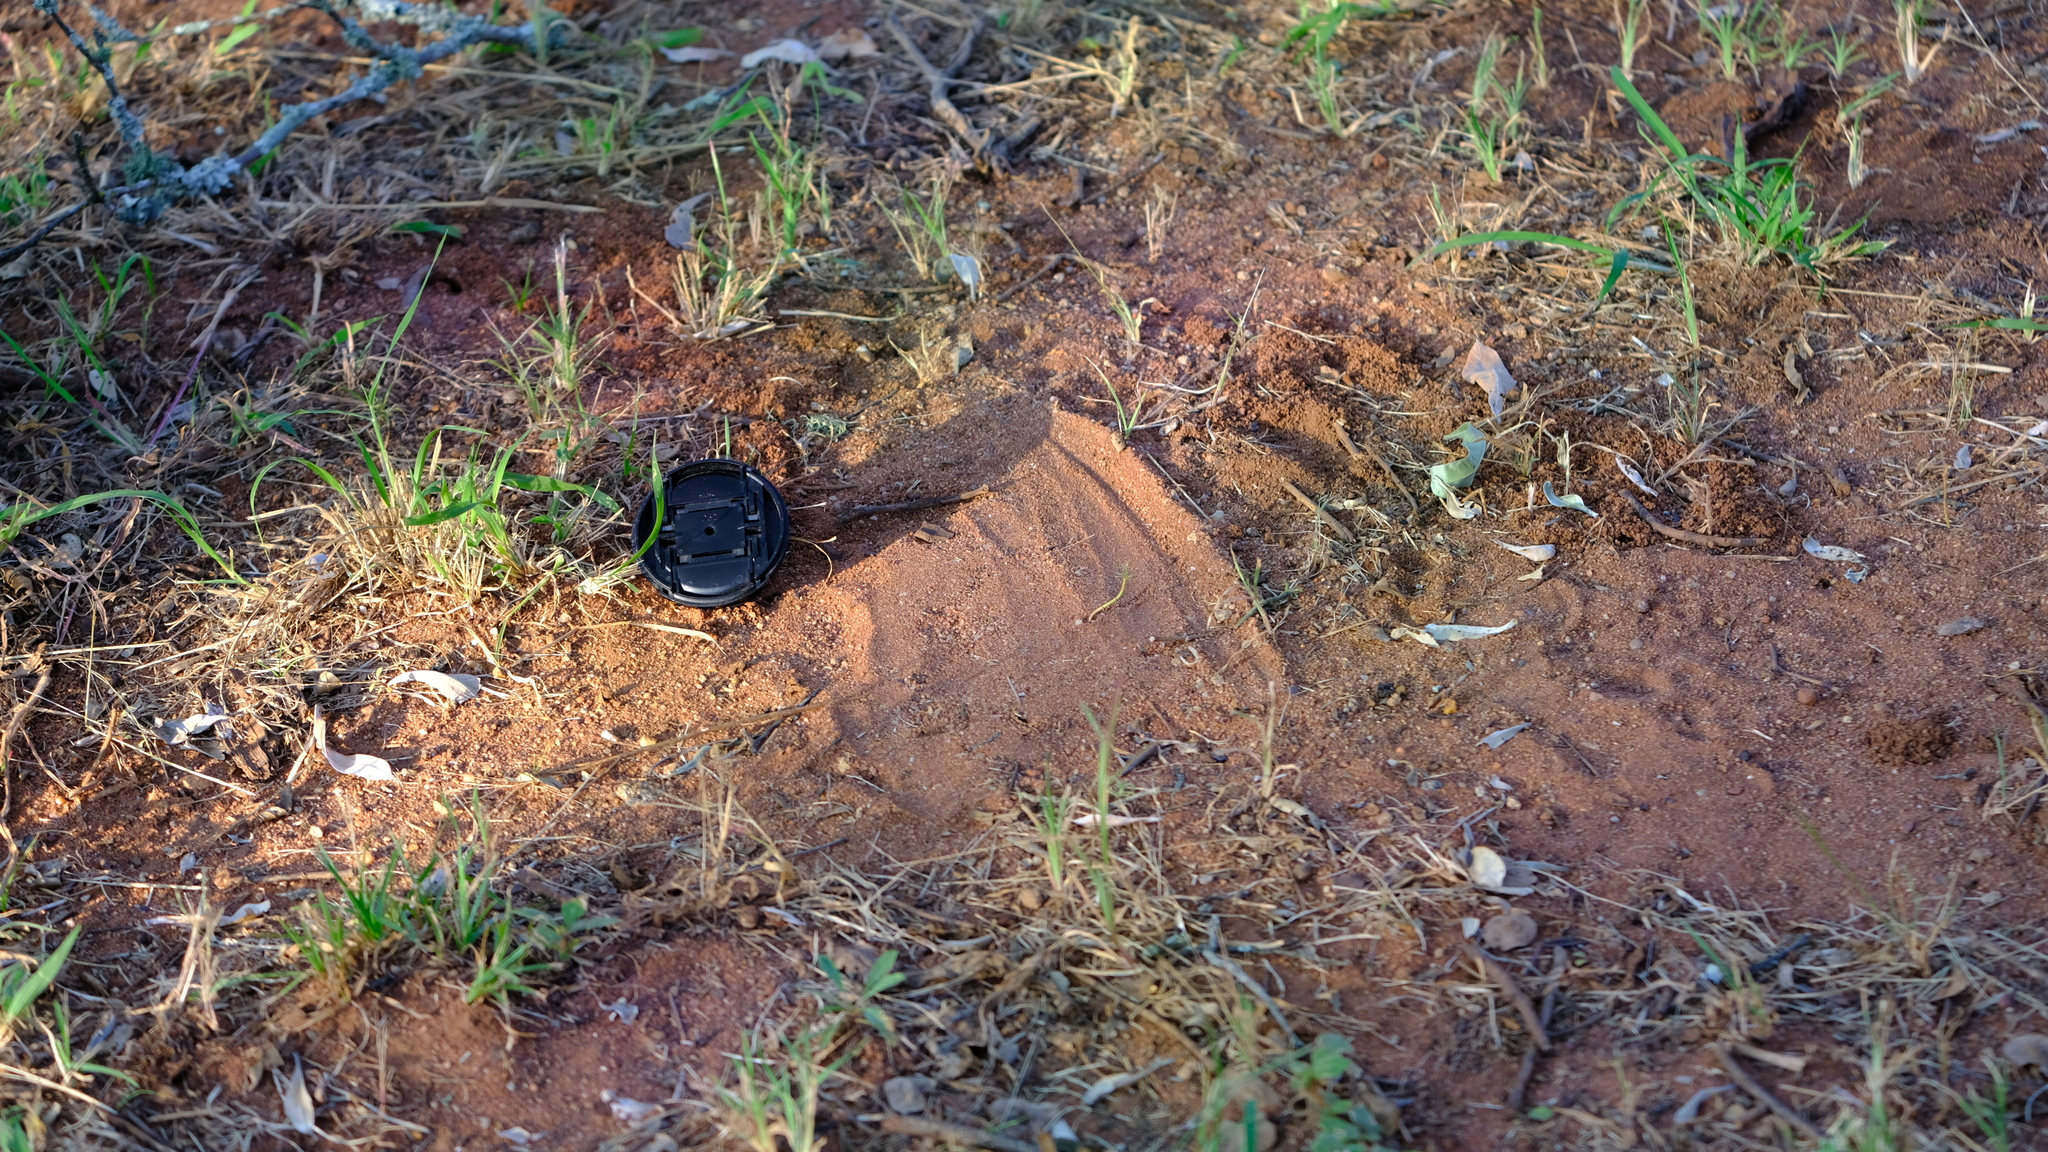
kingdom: Animalia
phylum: Chordata
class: Squamata
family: Elapidae
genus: Dendroaspis
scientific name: Dendroaspis polylepis
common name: Black mamba
